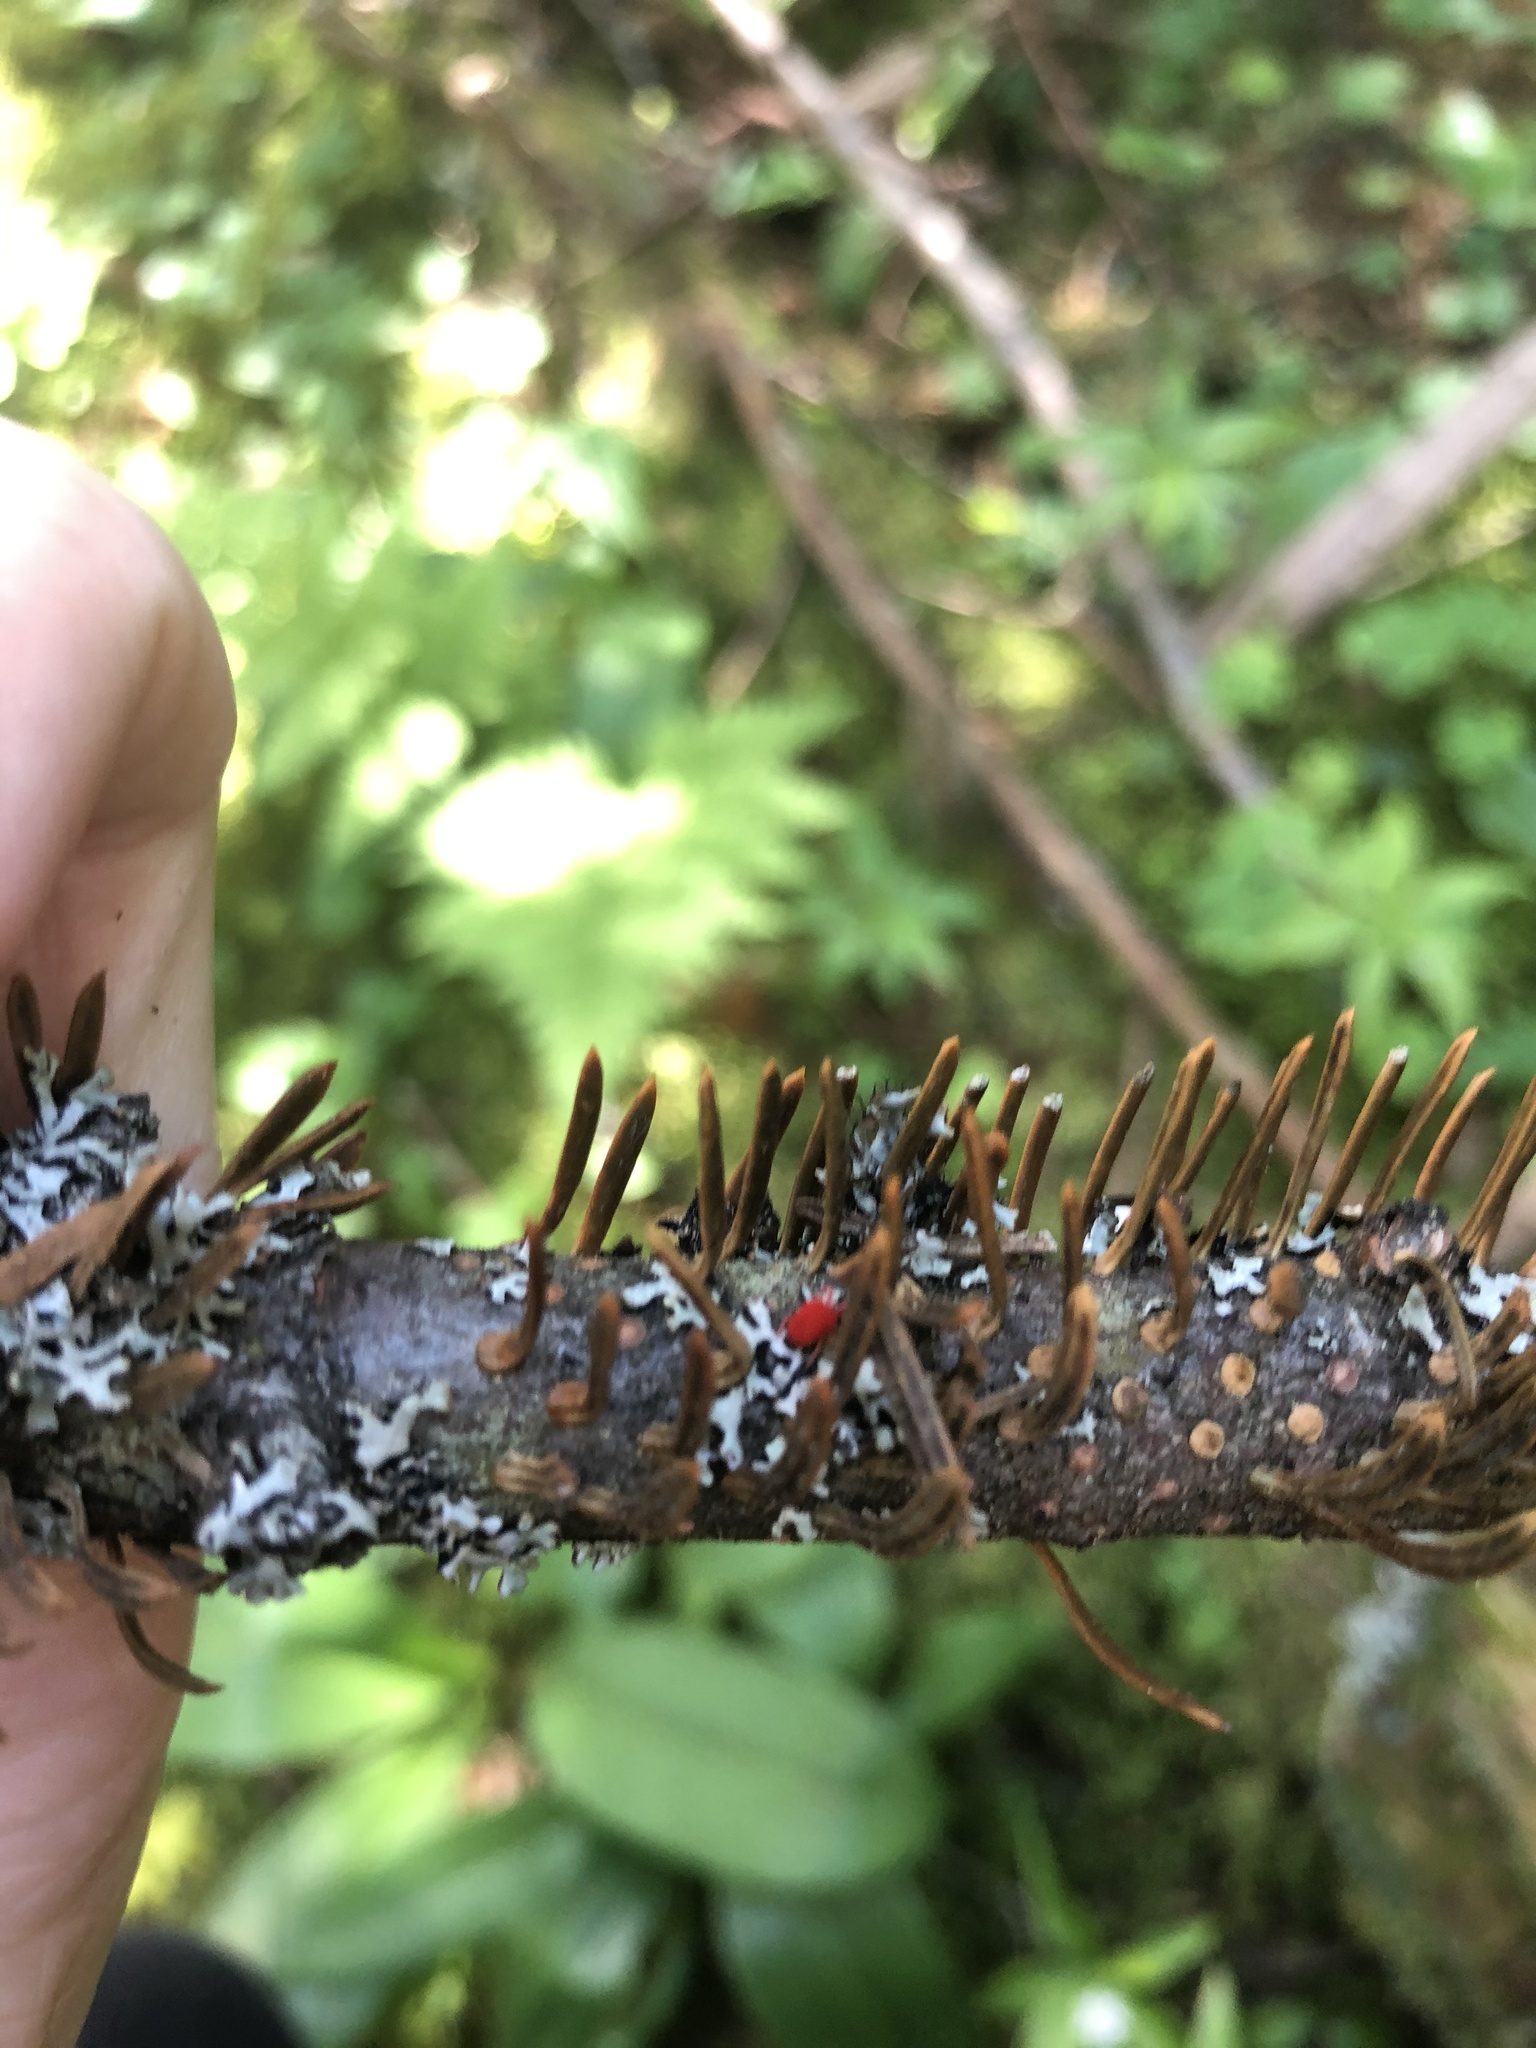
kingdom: Animalia
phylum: Arthropoda
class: Arachnida
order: Trombidiformes
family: Trombidiidae
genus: Trombidium
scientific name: Trombidium
